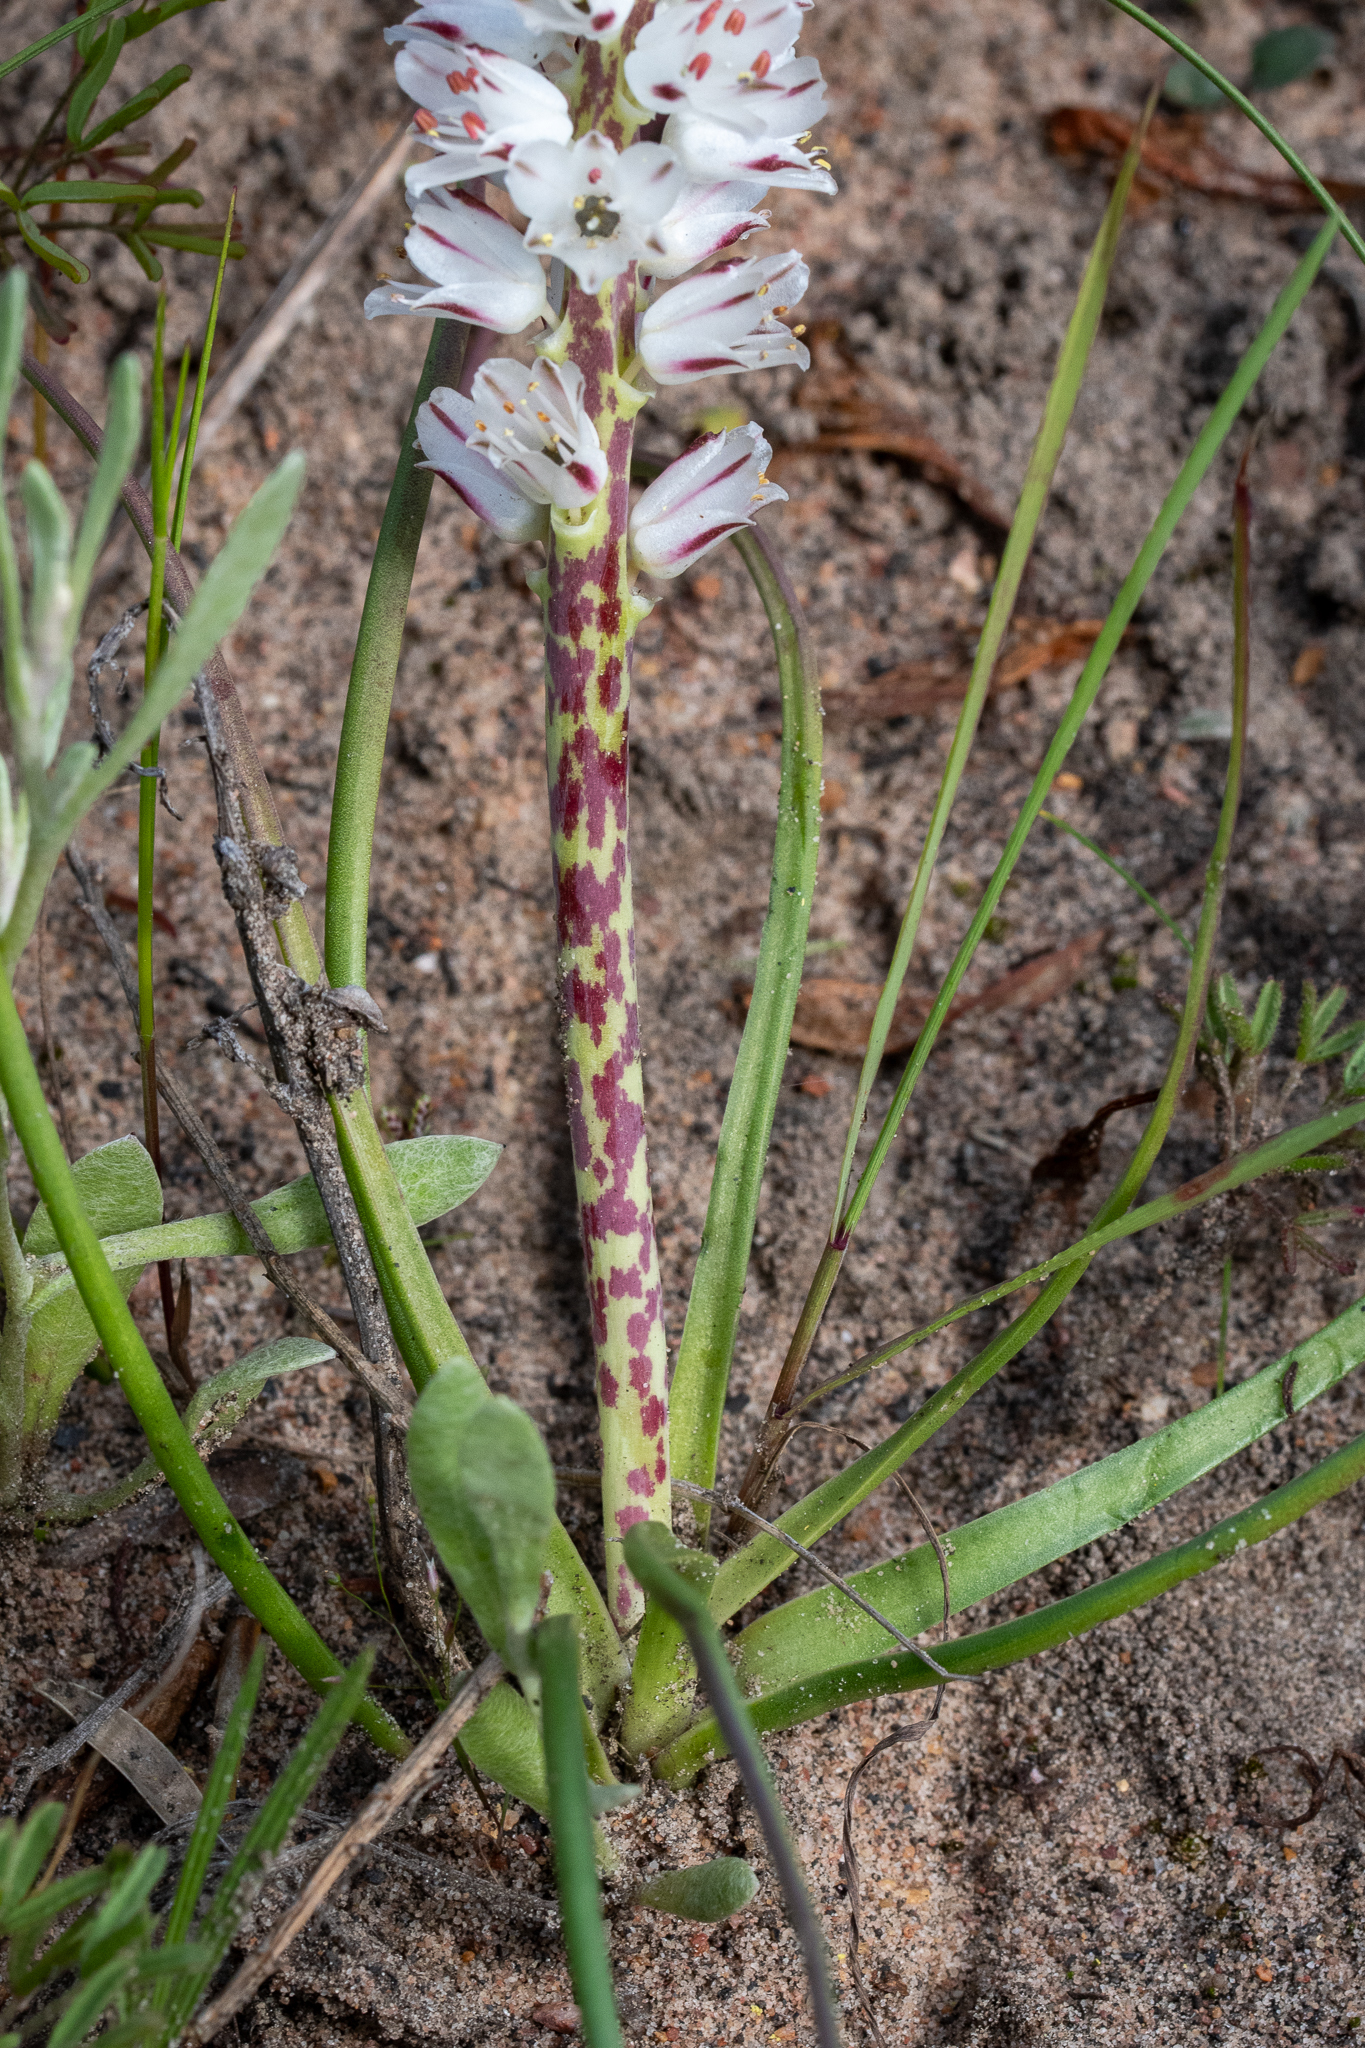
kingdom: Plantae
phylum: Tracheophyta
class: Liliopsida
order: Asparagales
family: Asparagaceae
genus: Lachenalia
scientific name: Lachenalia contaminata
